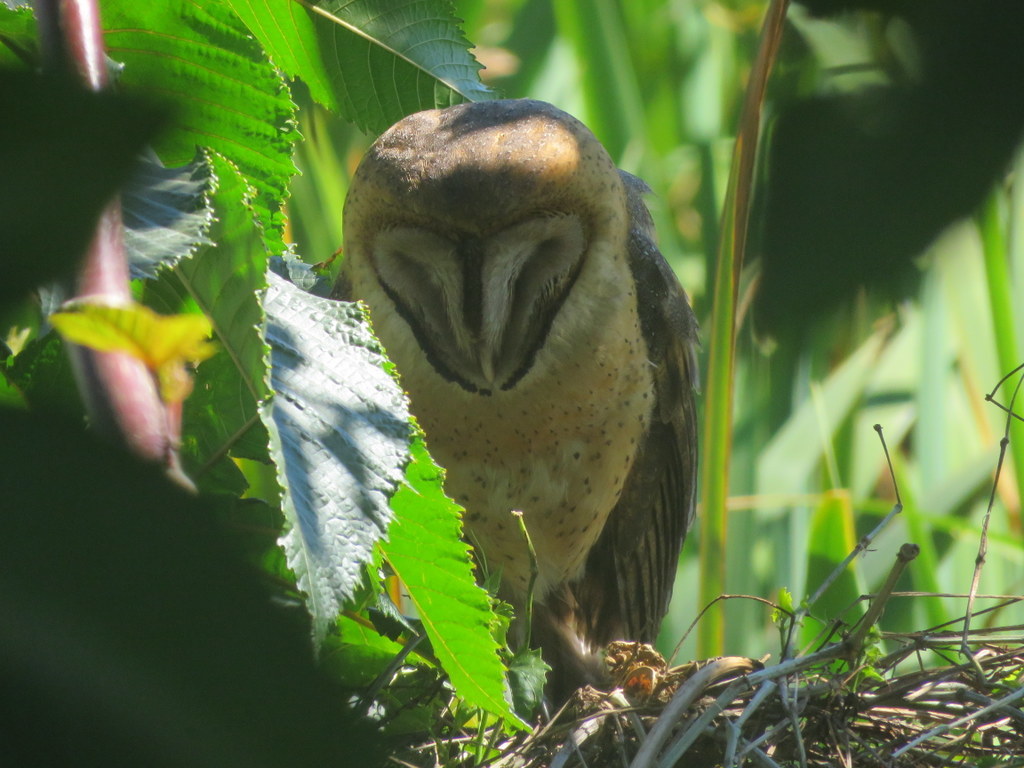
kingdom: Animalia
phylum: Chordata
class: Aves
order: Strigiformes
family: Tytonidae
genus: Tyto
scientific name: Tyto alba
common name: Barn owl
